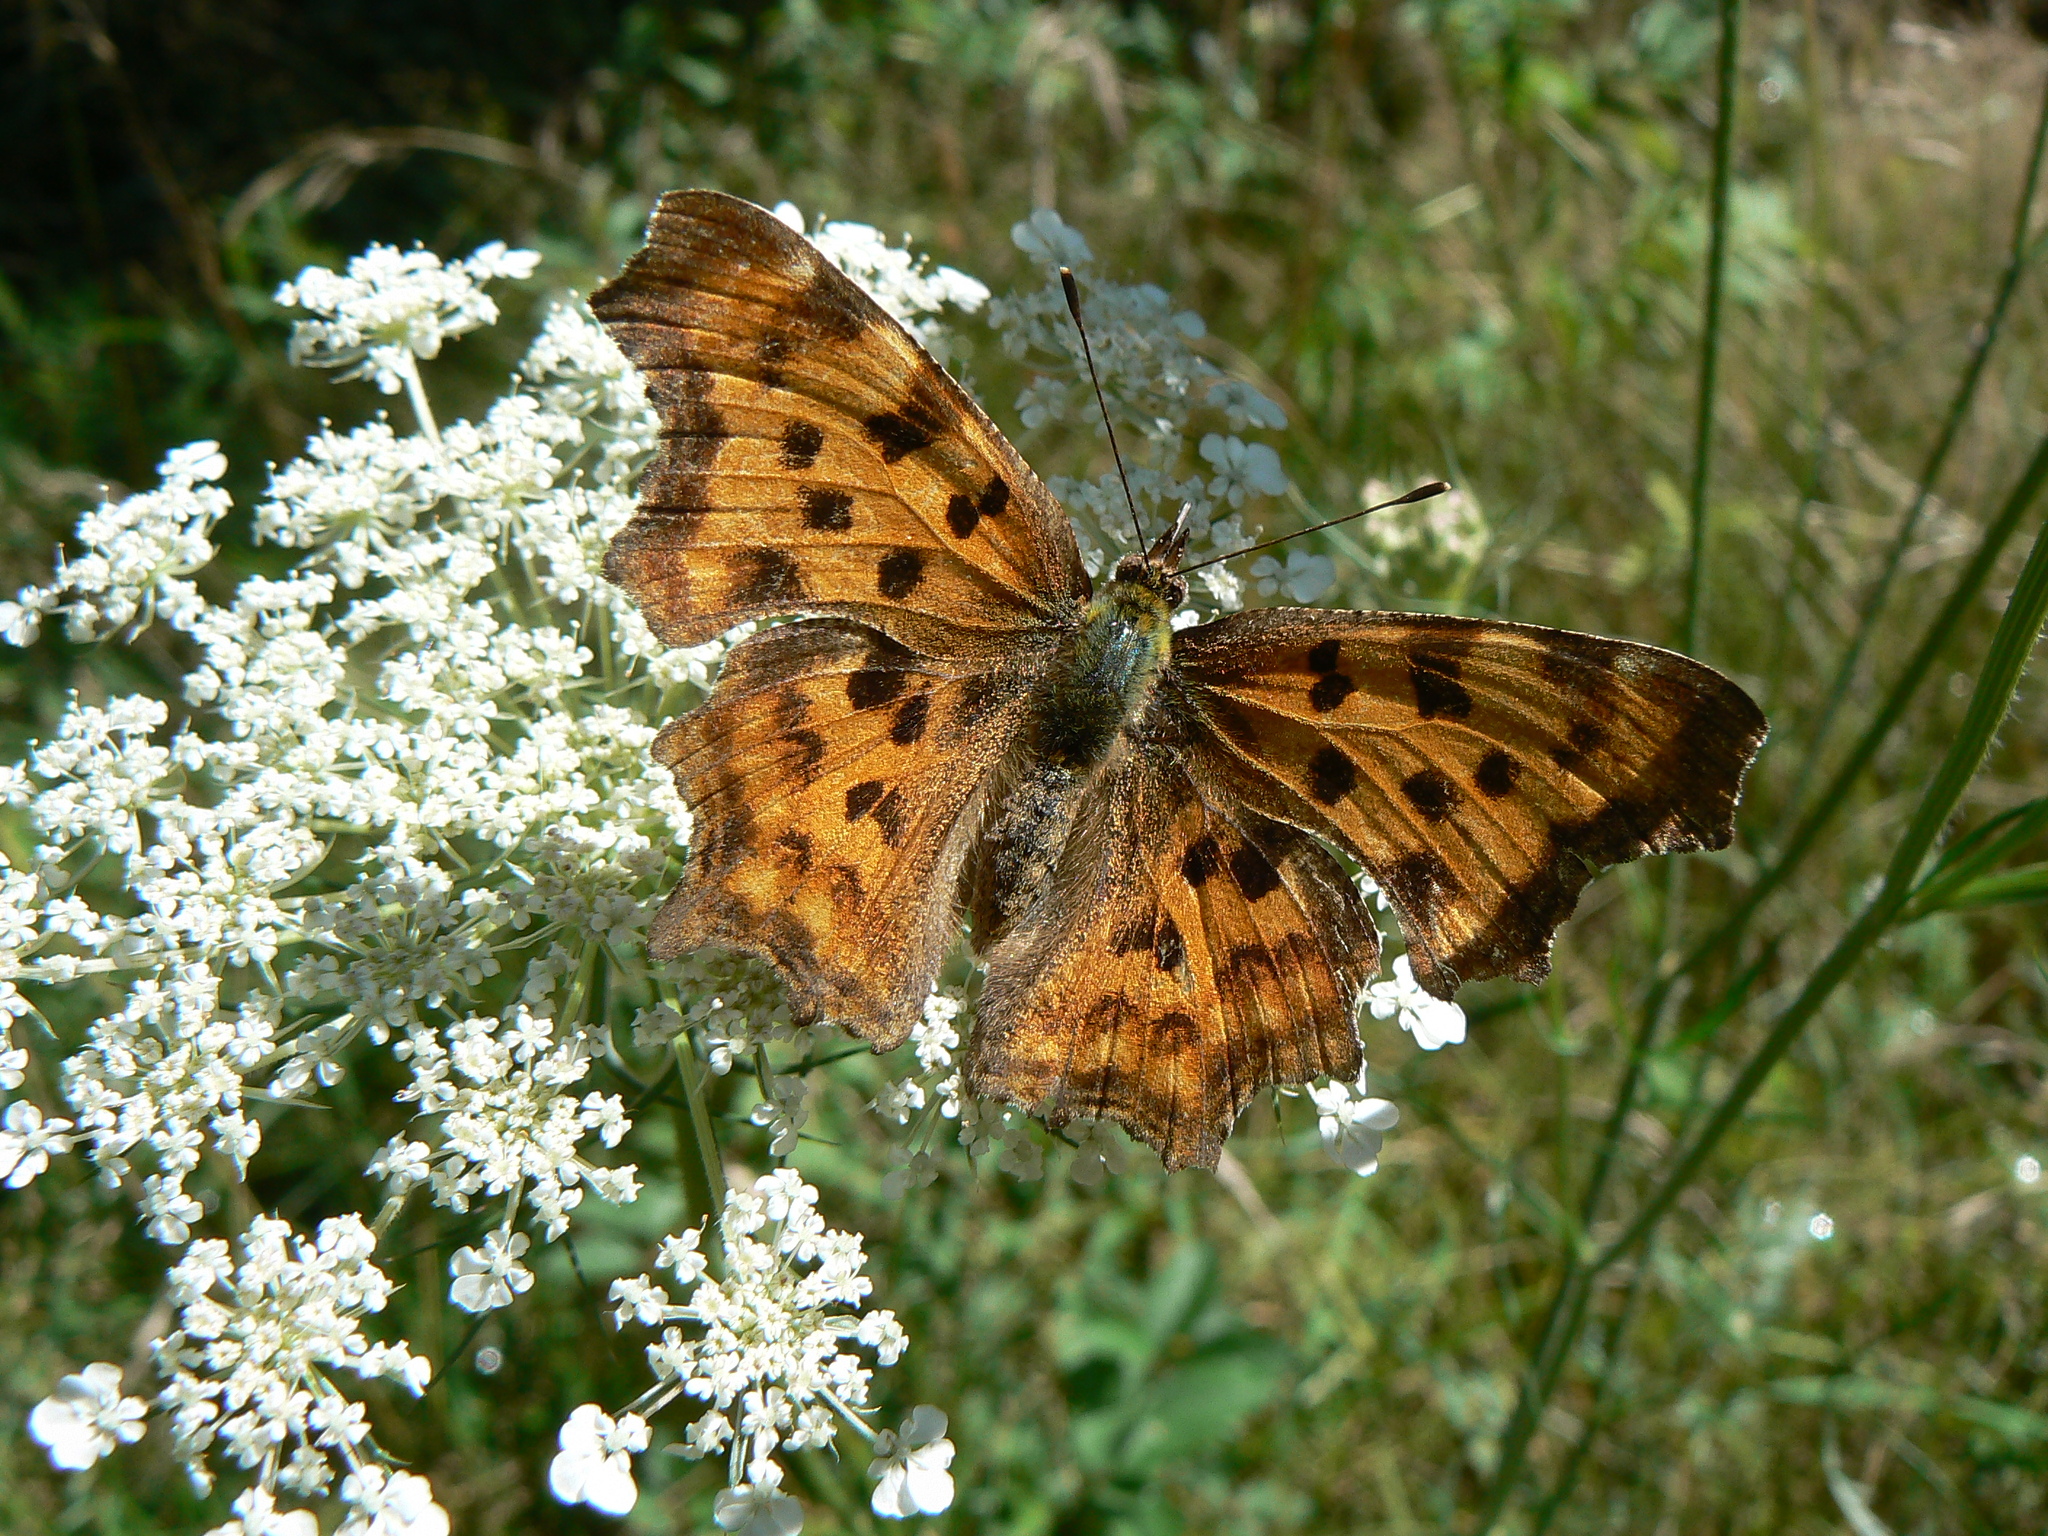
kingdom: Animalia
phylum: Arthropoda
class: Insecta
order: Lepidoptera
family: Nymphalidae
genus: Polygonia
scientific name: Polygonia c-album
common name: Comma
